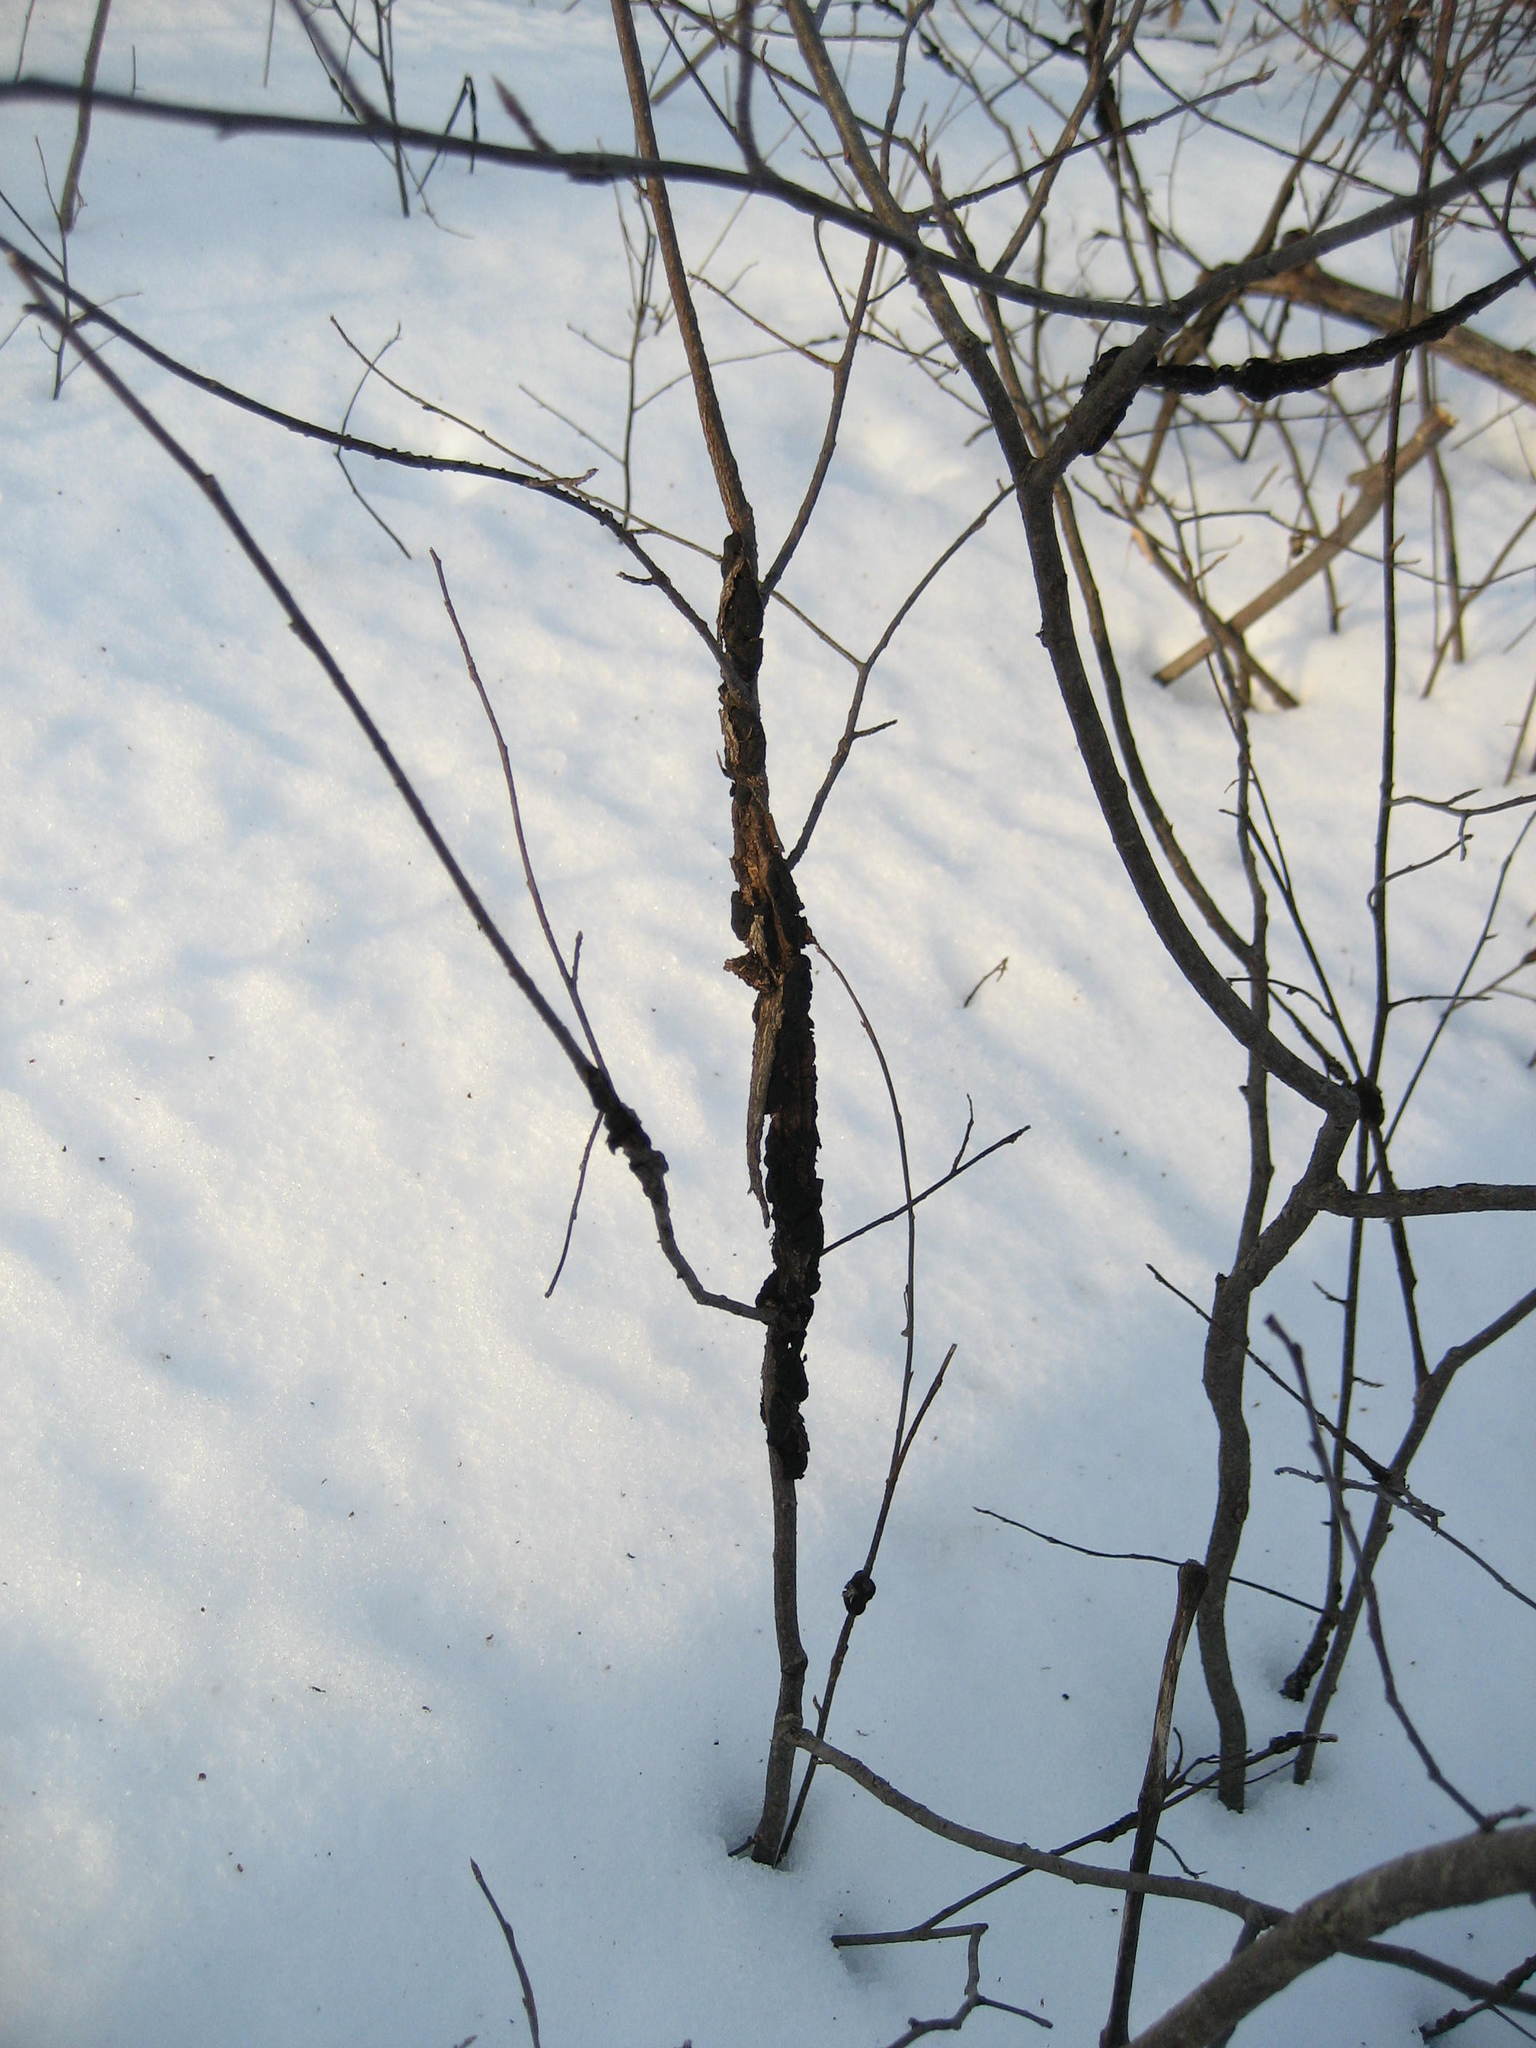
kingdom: Plantae
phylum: Tracheophyta
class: Magnoliopsida
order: Rosales
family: Rosaceae
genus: Prunus
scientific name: Prunus virginiana
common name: Chokecherry
